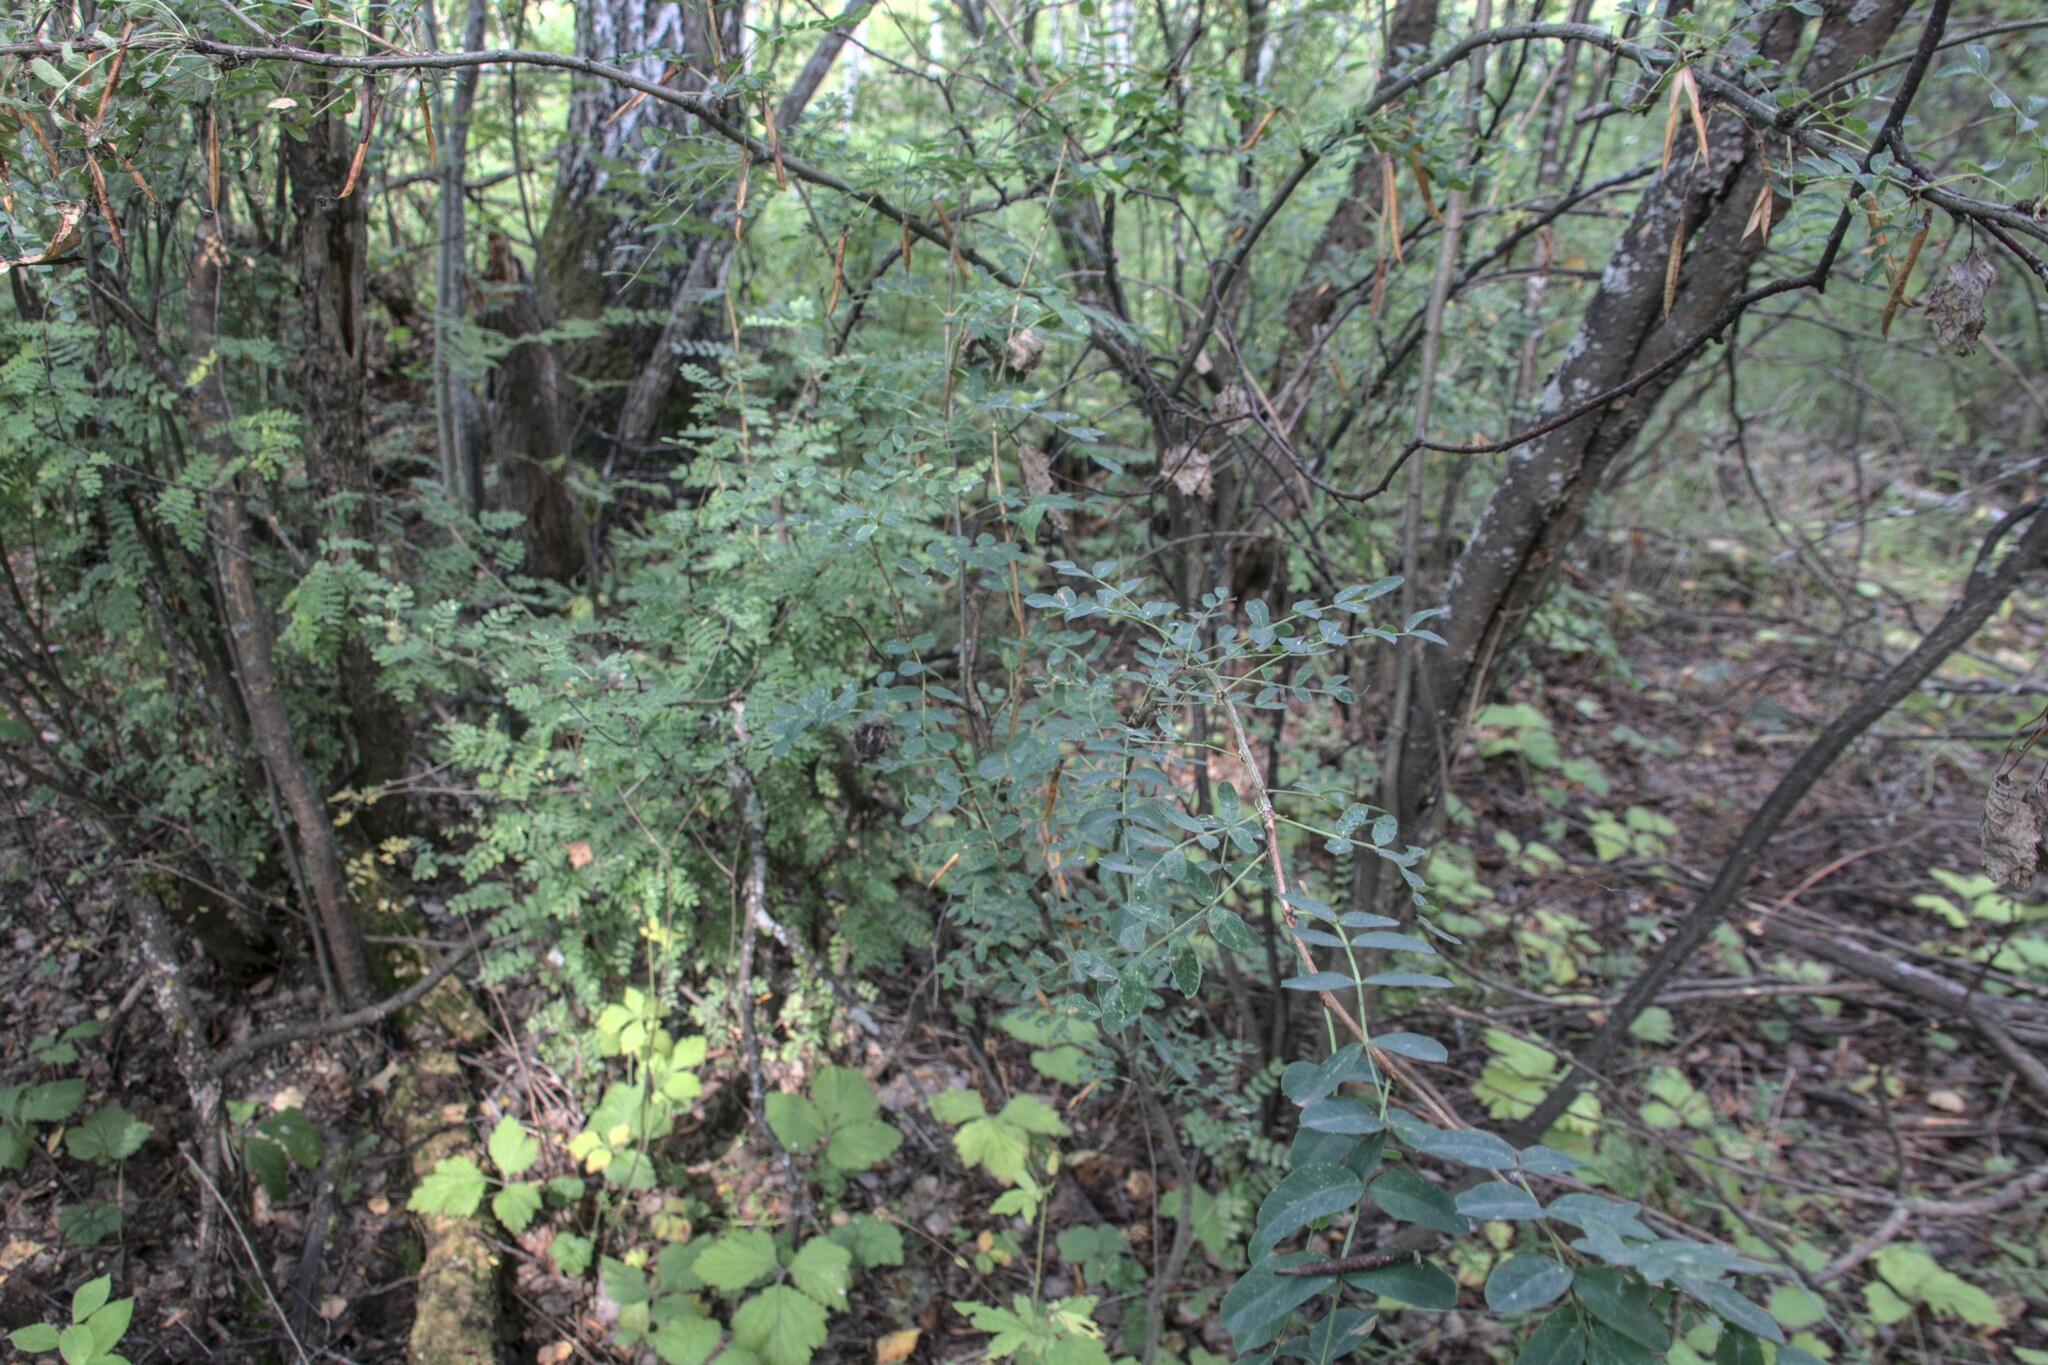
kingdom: Plantae
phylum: Tracheophyta
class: Magnoliopsida
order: Fabales
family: Fabaceae
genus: Caragana
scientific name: Caragana arborescens
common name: Siberian peashrub
